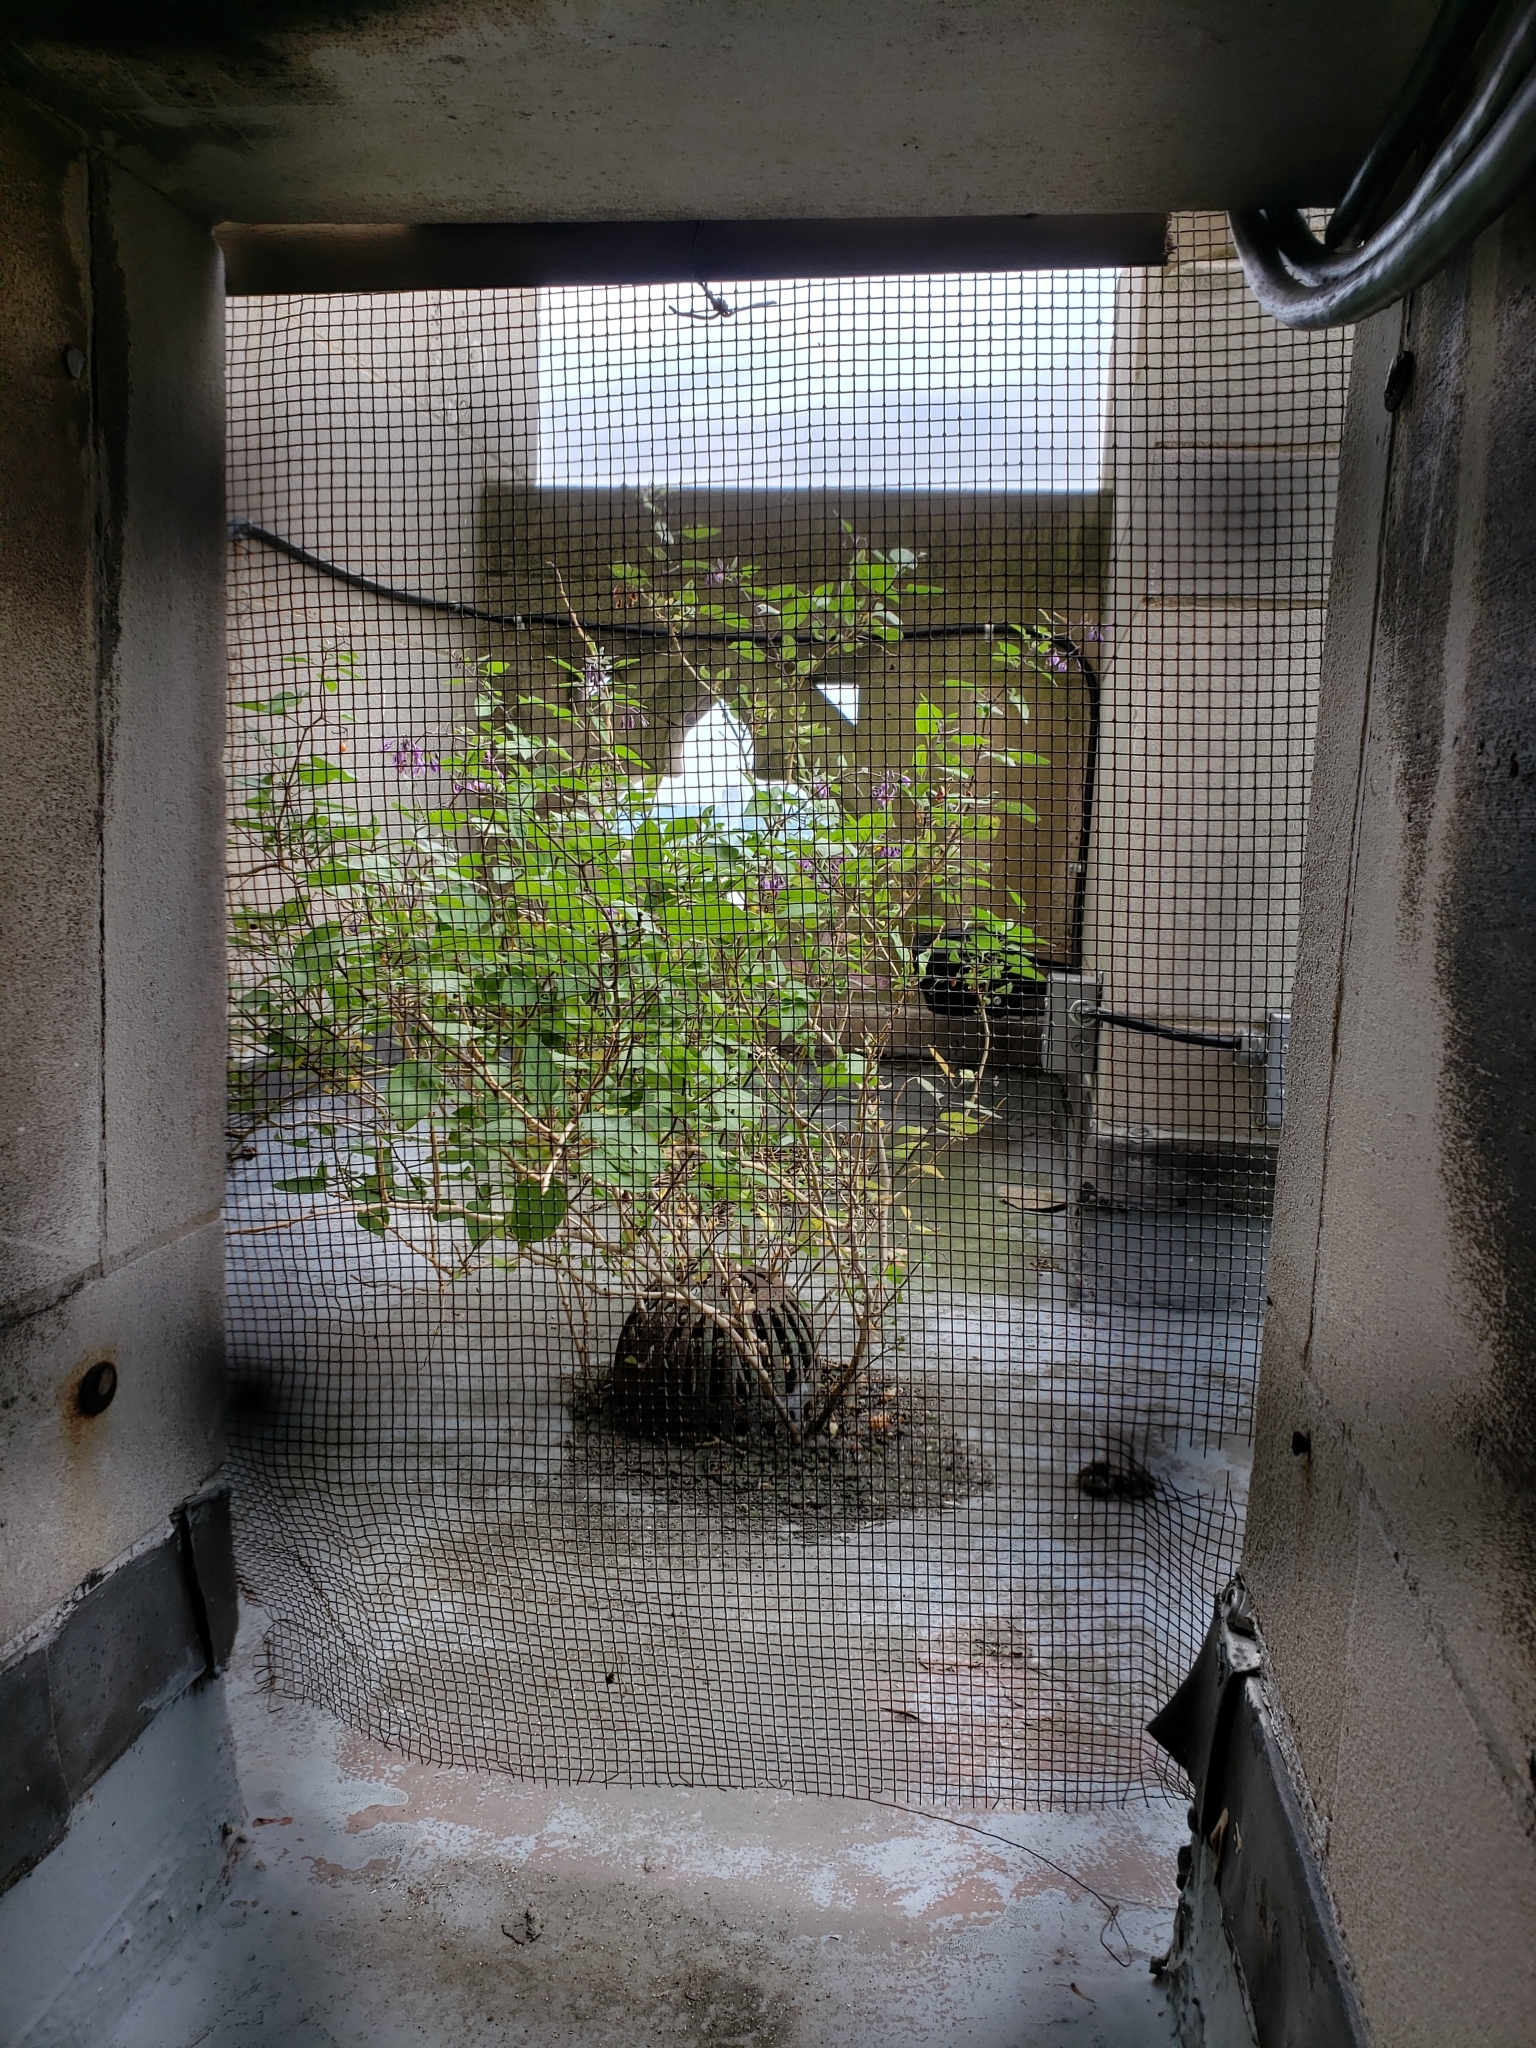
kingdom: Plantae
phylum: Tracheophyta
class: Magnoliopsida
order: Solanales
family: Solanaceae
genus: Solanum
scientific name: Solanum dulcamara
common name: Climbing nightshade
